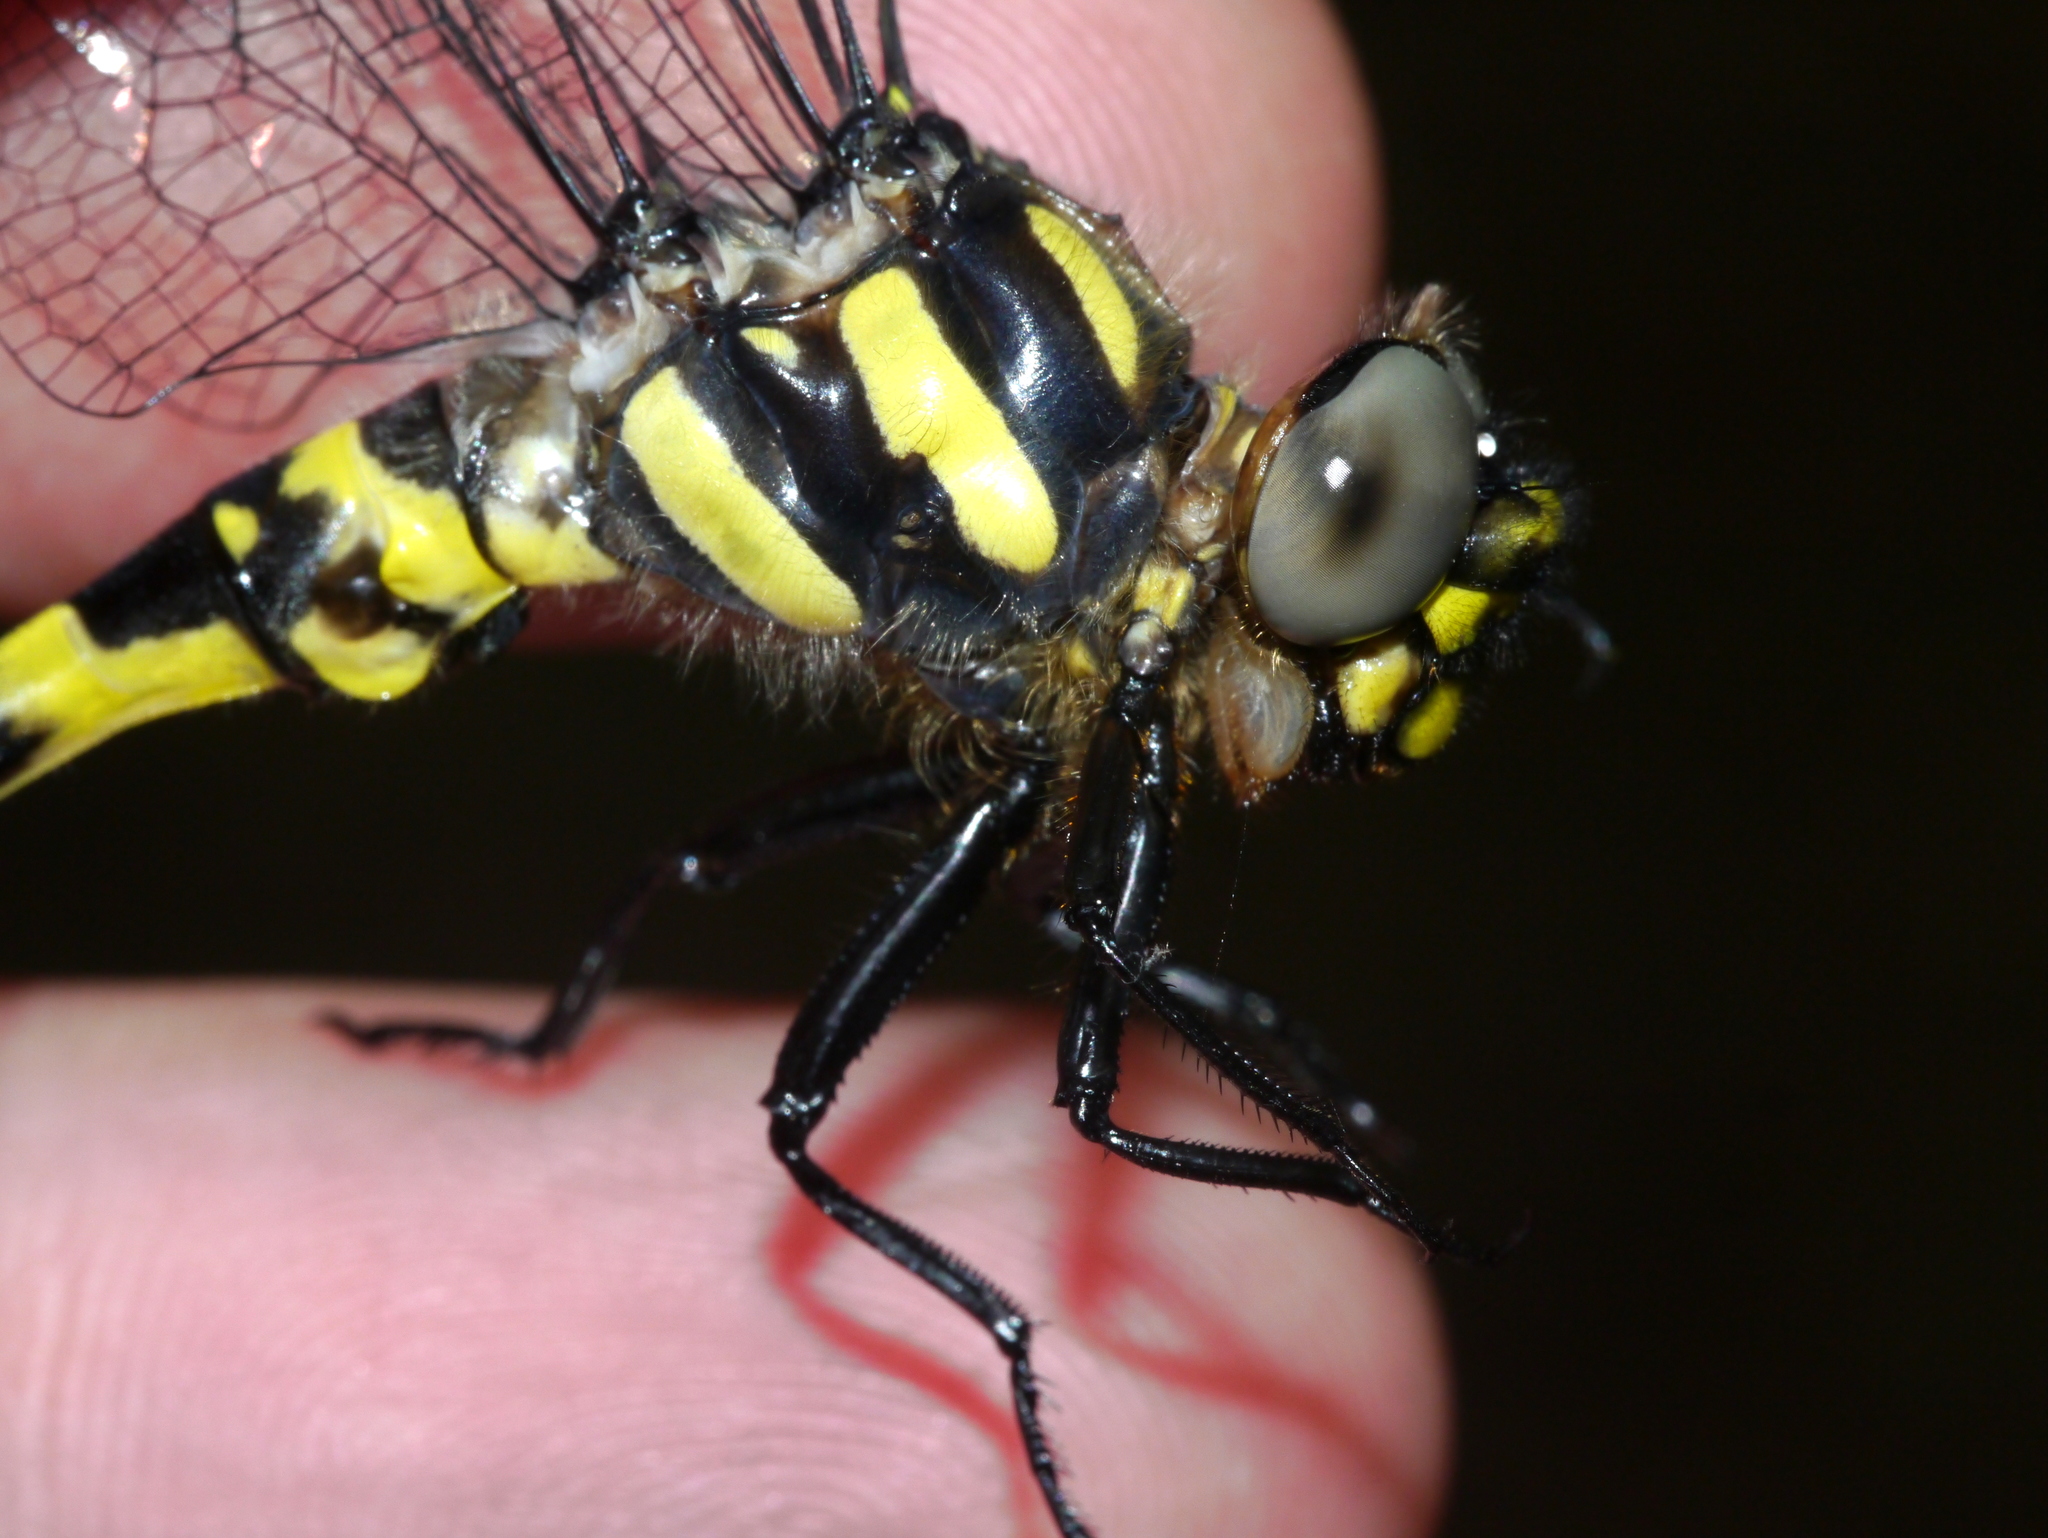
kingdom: Animalia
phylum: Arthropoda
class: Insecta
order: Odonata
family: Cordulegastridae
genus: Cordulegaster
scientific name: Cordulegaster erronea
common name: Tiger spiketail
